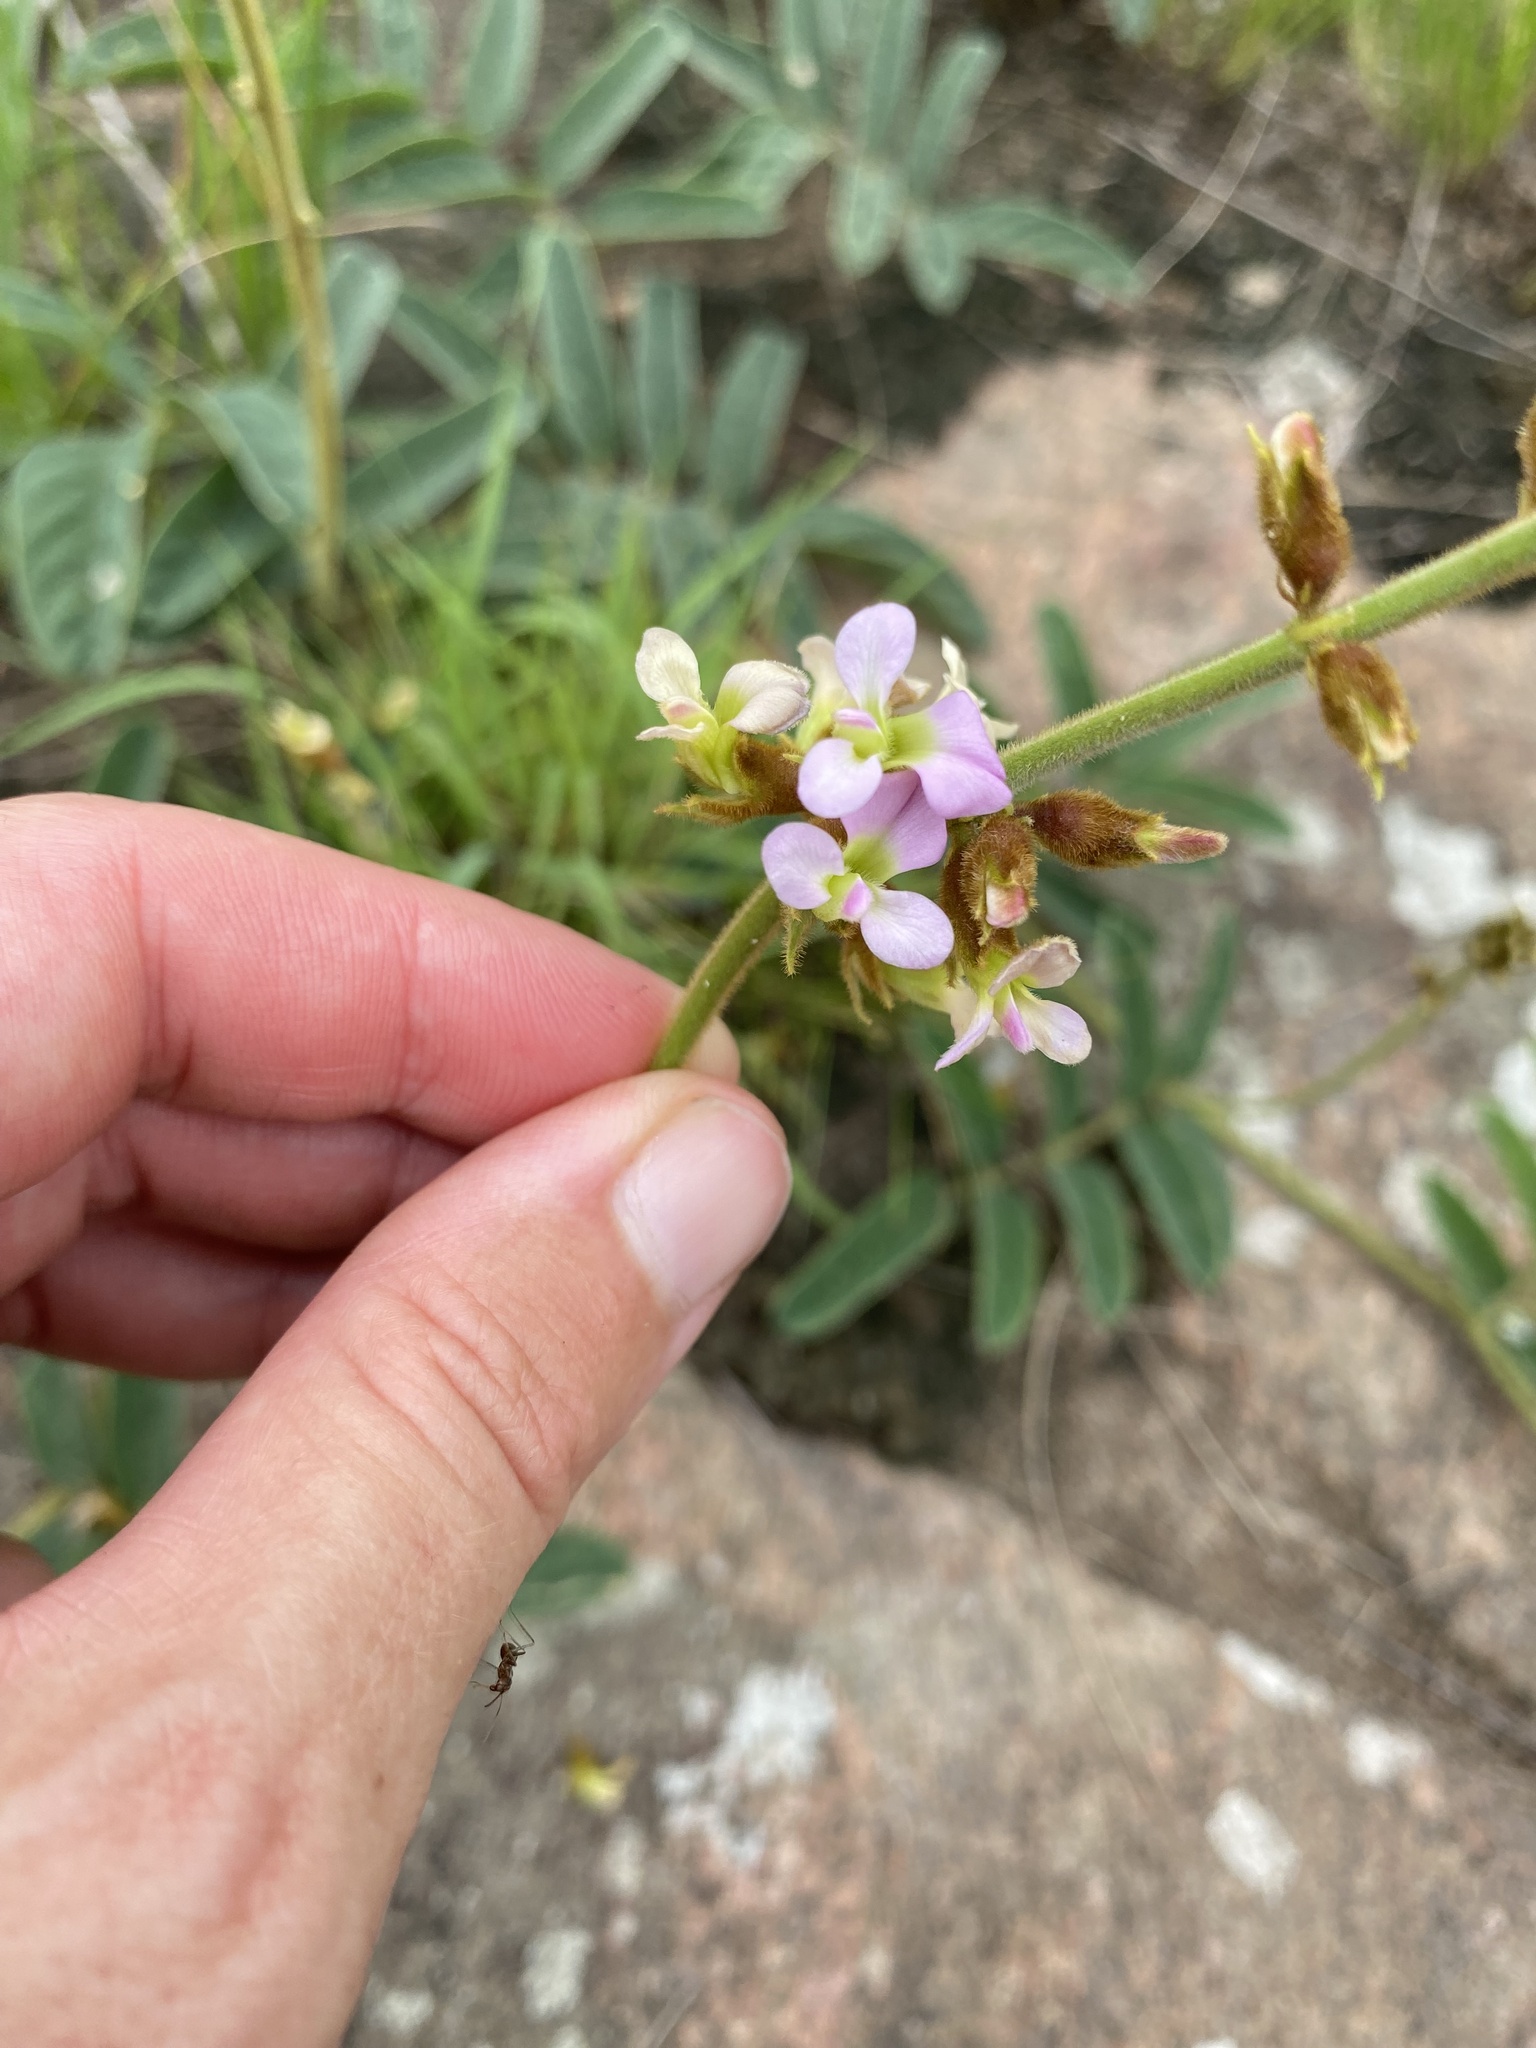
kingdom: Plantae
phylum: Tracheophyta
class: Magnoliopsida
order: Fabales
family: Fabaceae
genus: Ophrestia
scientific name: Ophrestia oblongifolia
